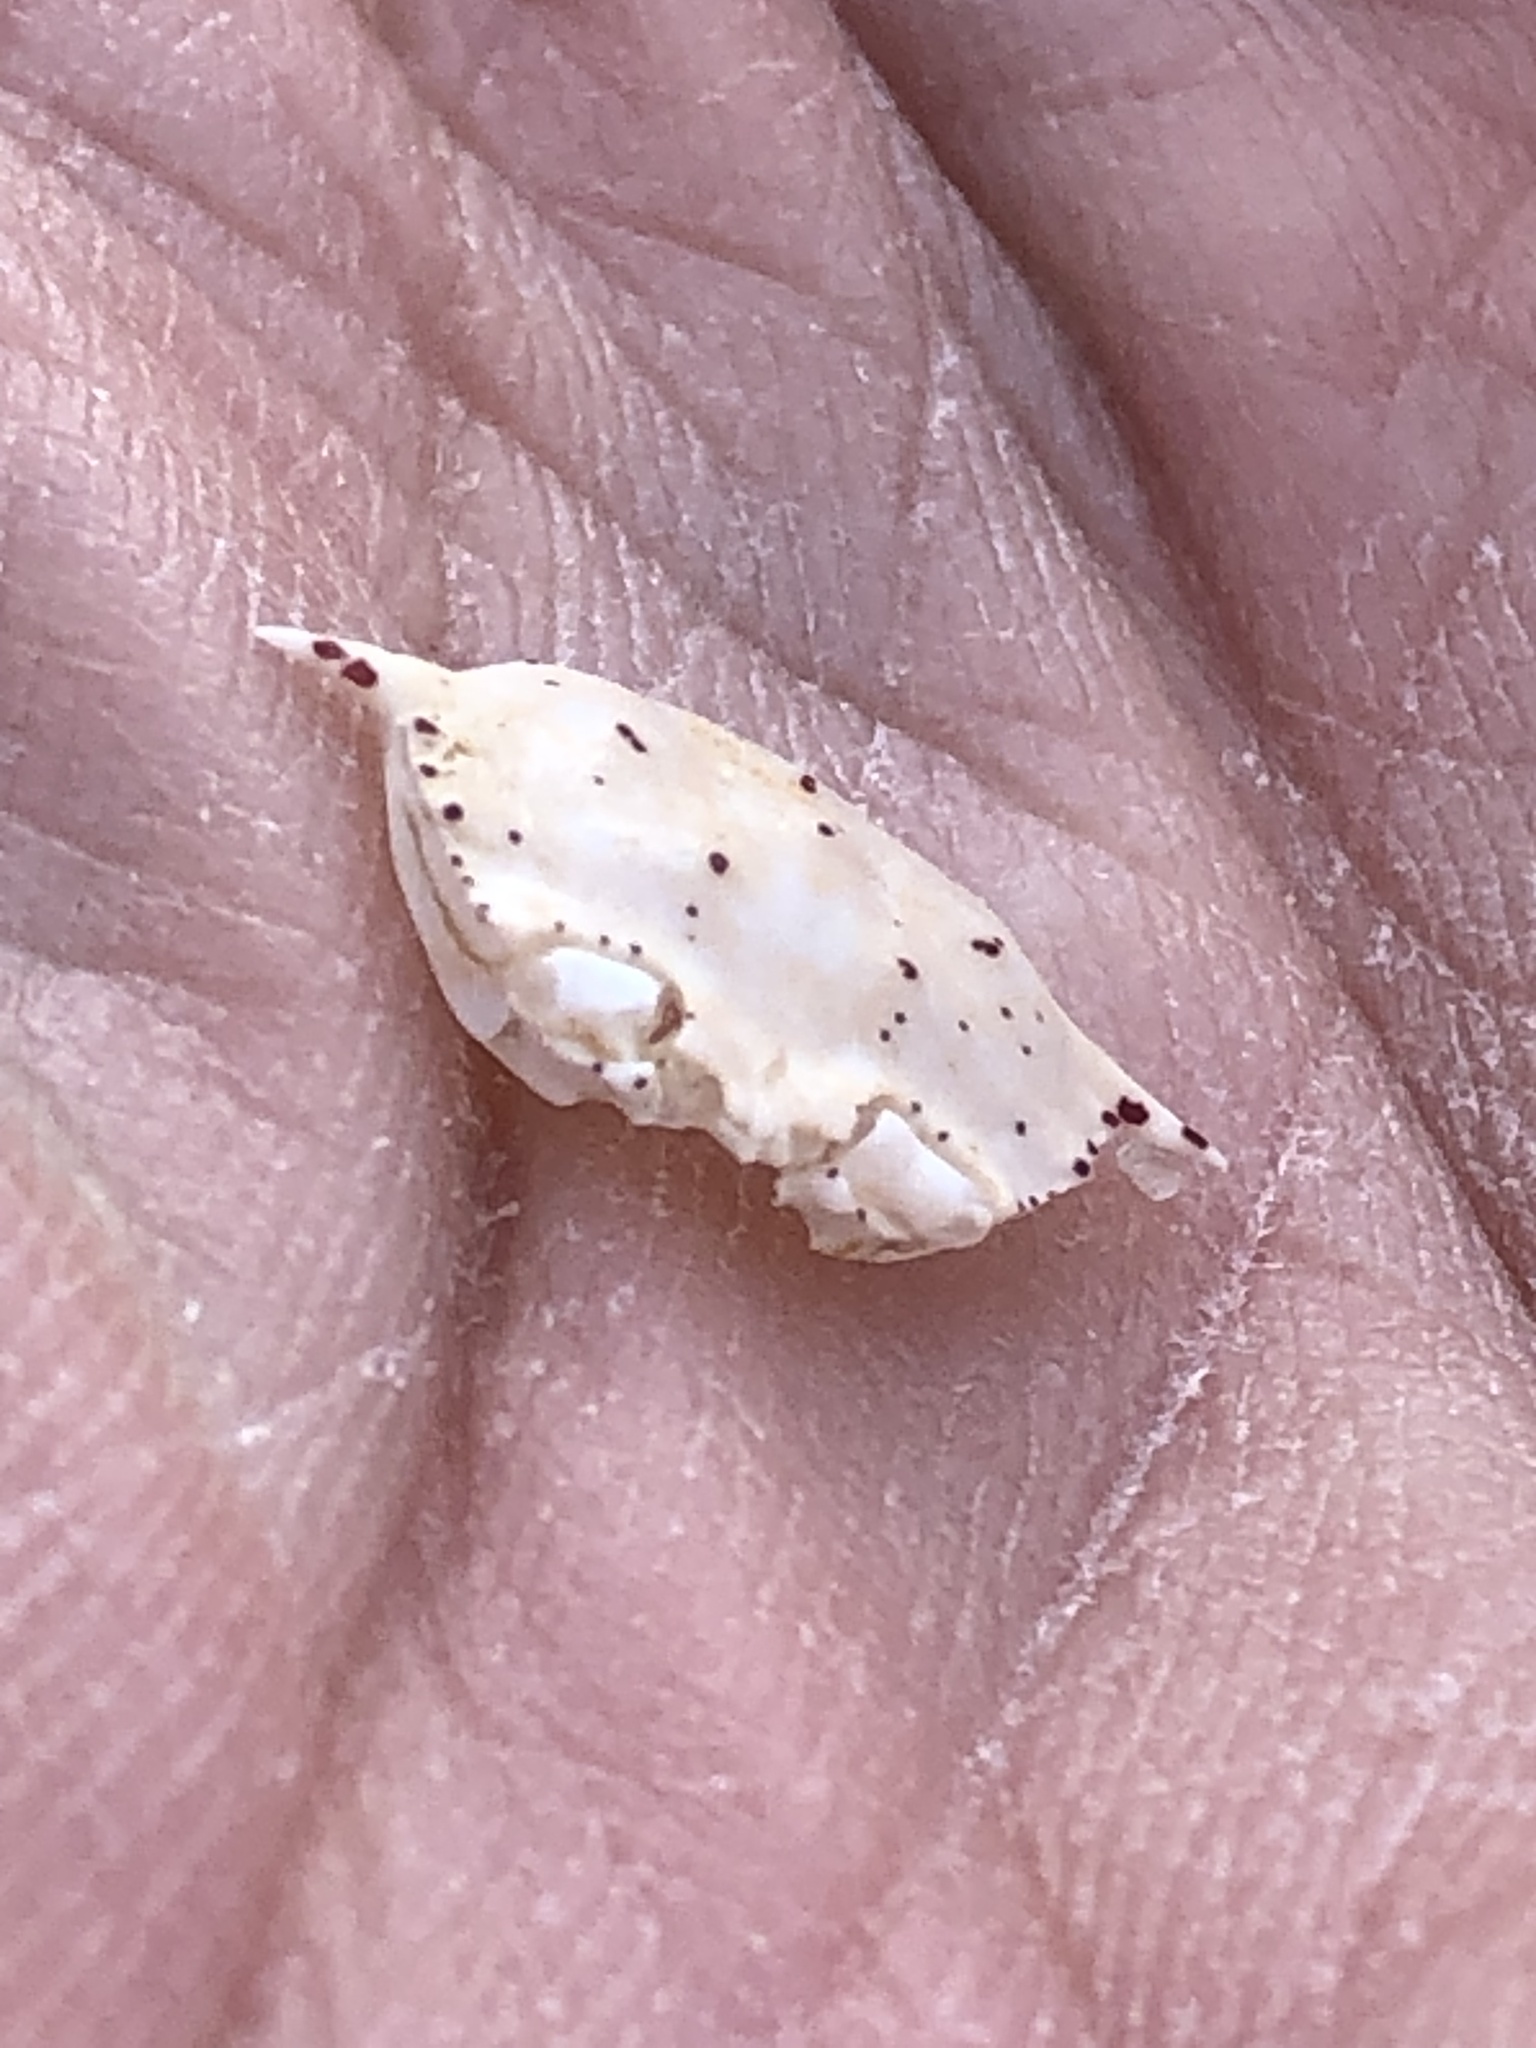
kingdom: Animalia
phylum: Arthropoda
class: Malacostraca
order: Decapoda
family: Matutidae
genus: Matuta
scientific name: Matuta victor
